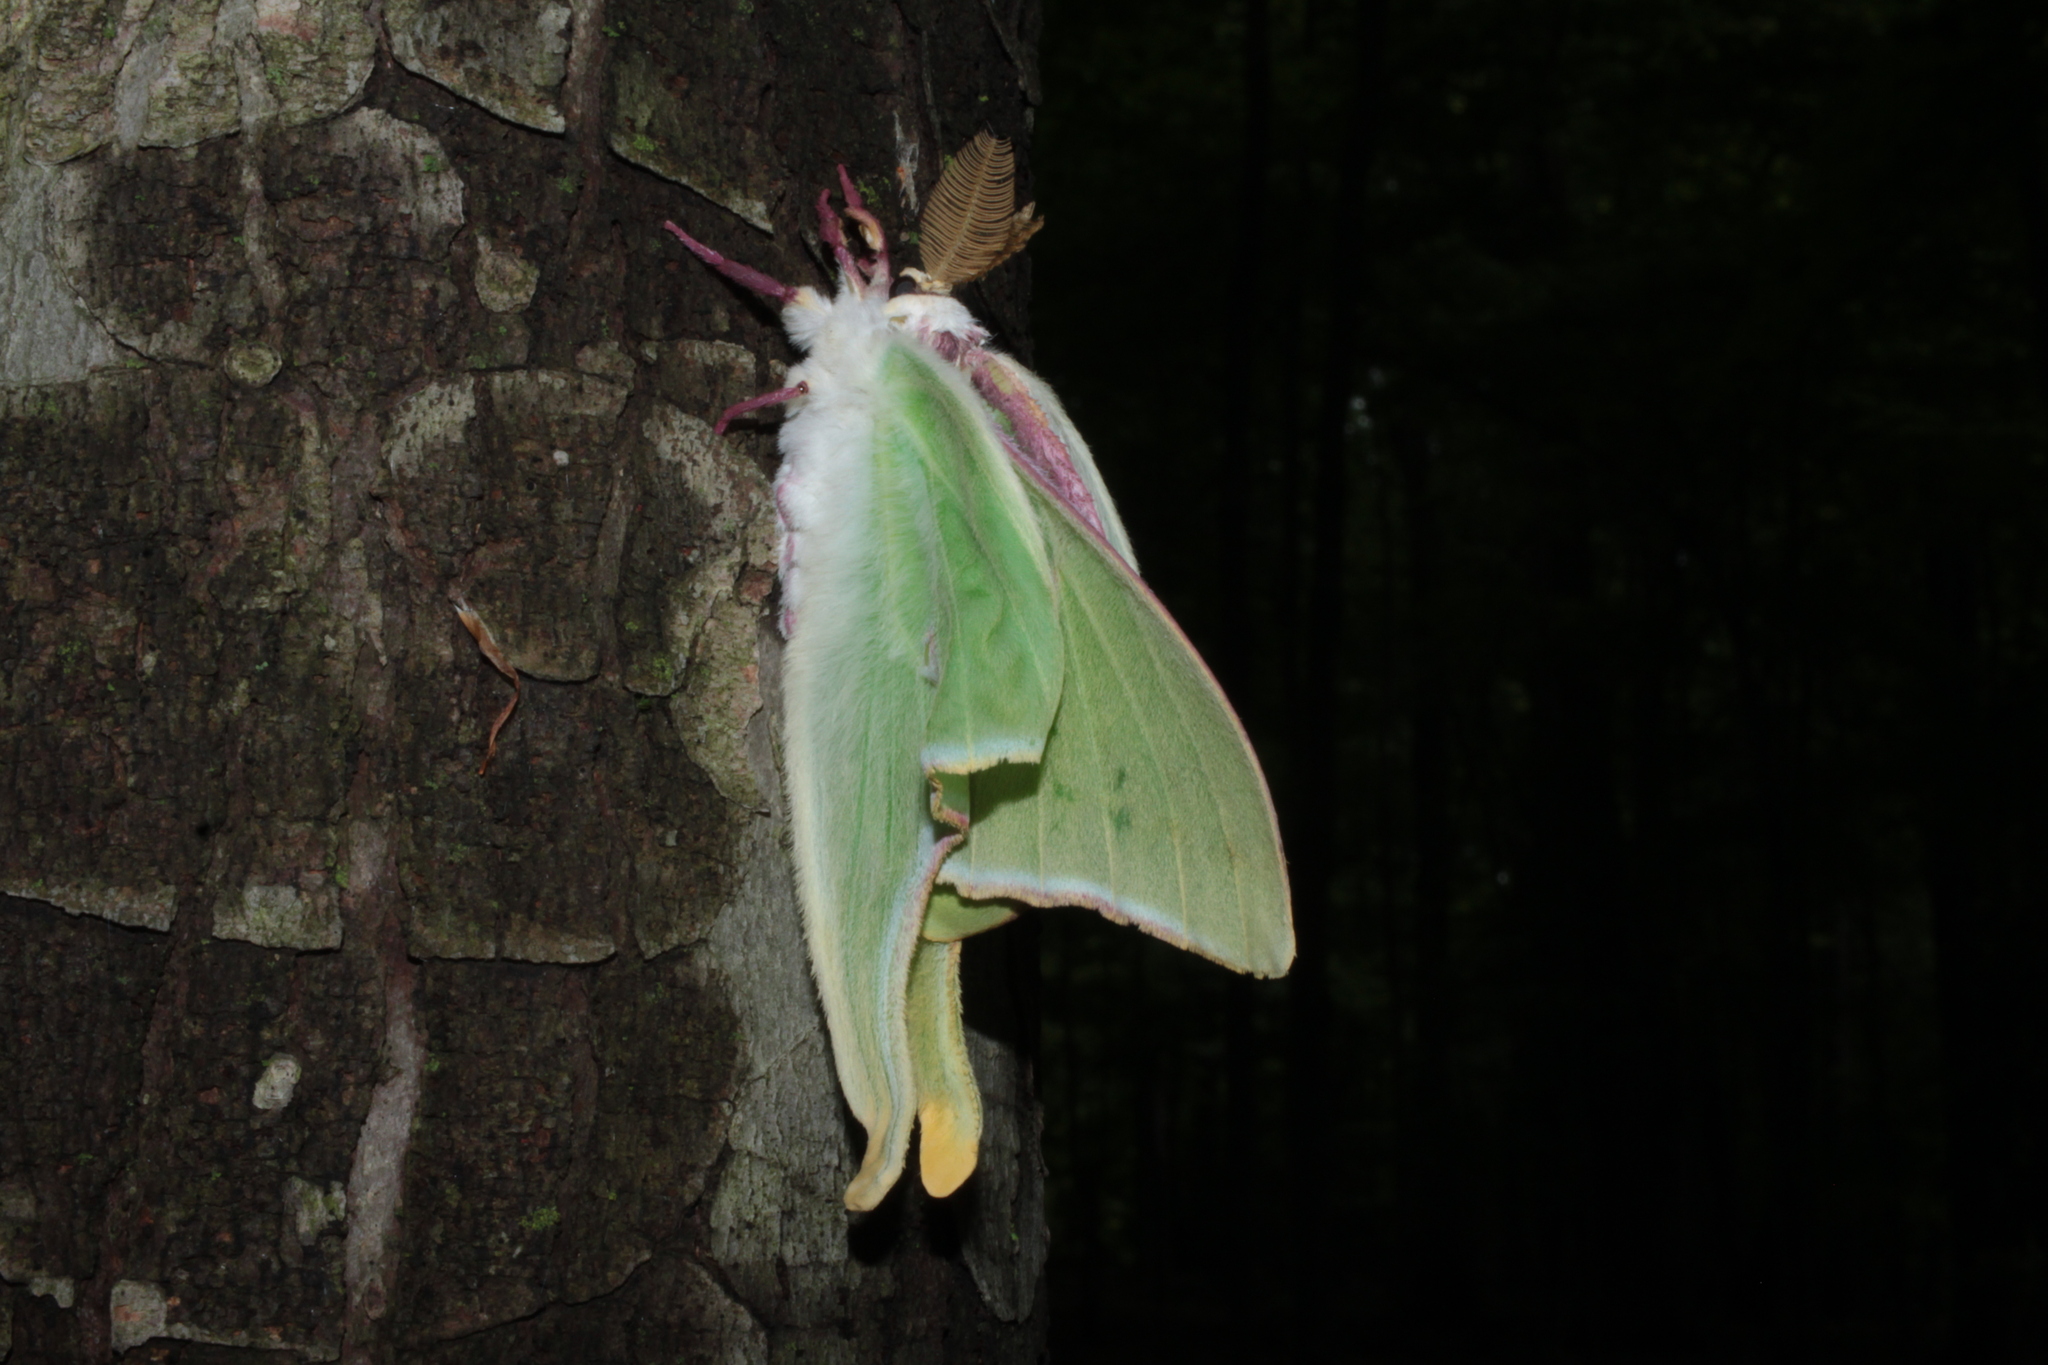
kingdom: Animalia
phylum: Arthropoda
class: Insecta
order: Lepidoptera
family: Saturniidae
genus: Actias
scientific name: Actias luna
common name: Luna moth
